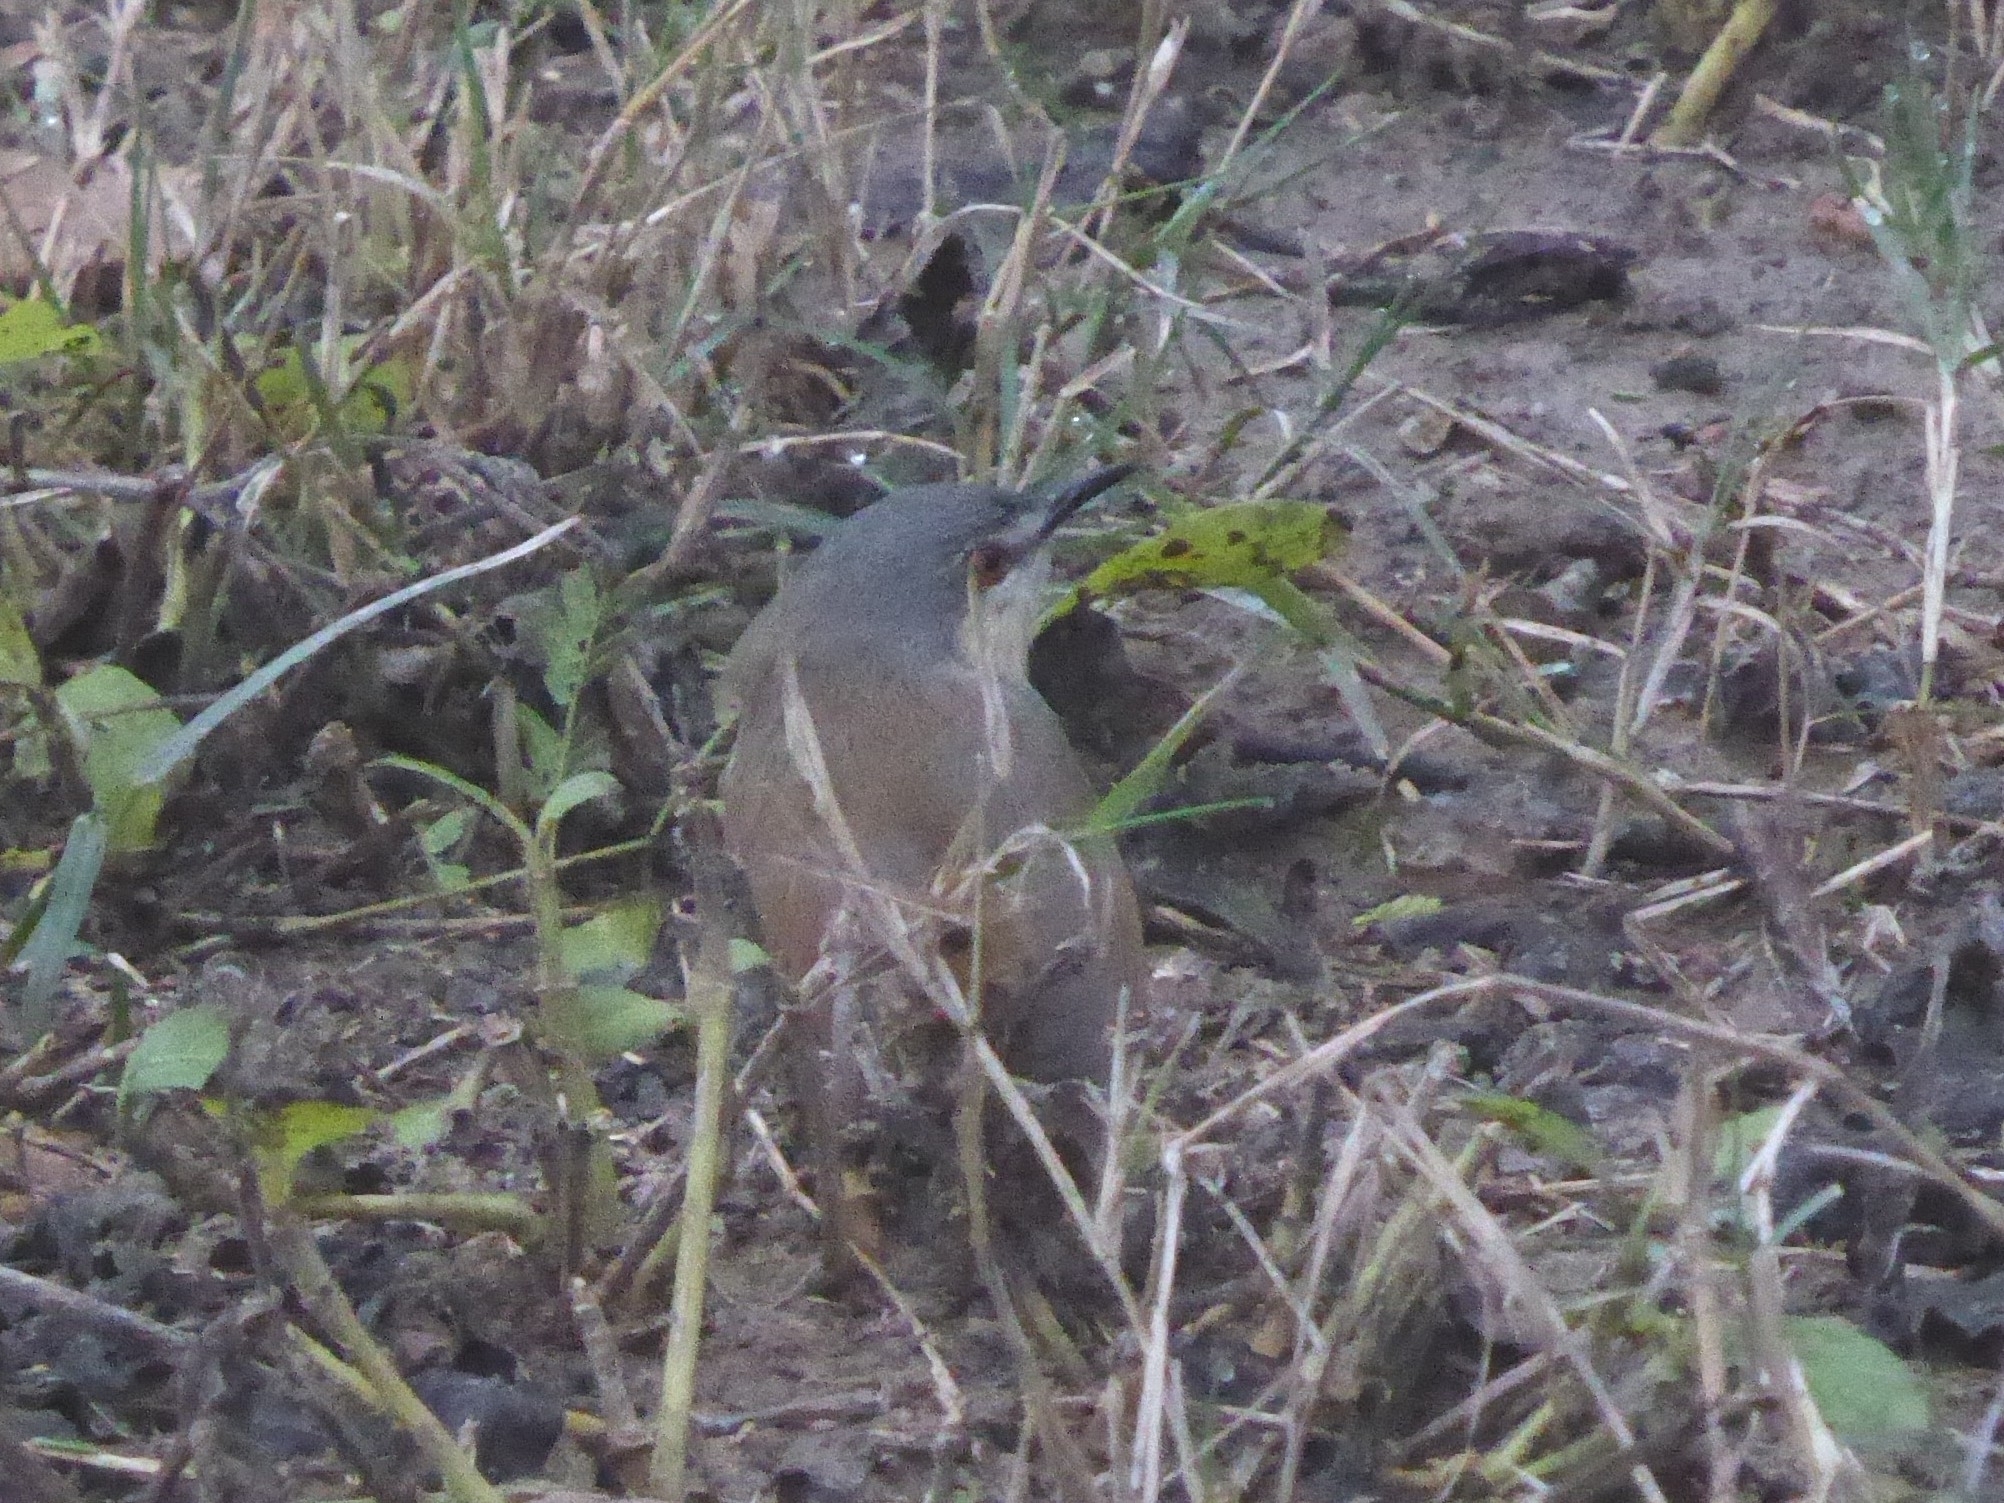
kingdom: Animalia
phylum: Chordata
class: Aves
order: Passeriformes
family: Cisticolidae
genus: Prinia
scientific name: Prinia socialis
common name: Ashy prinia
